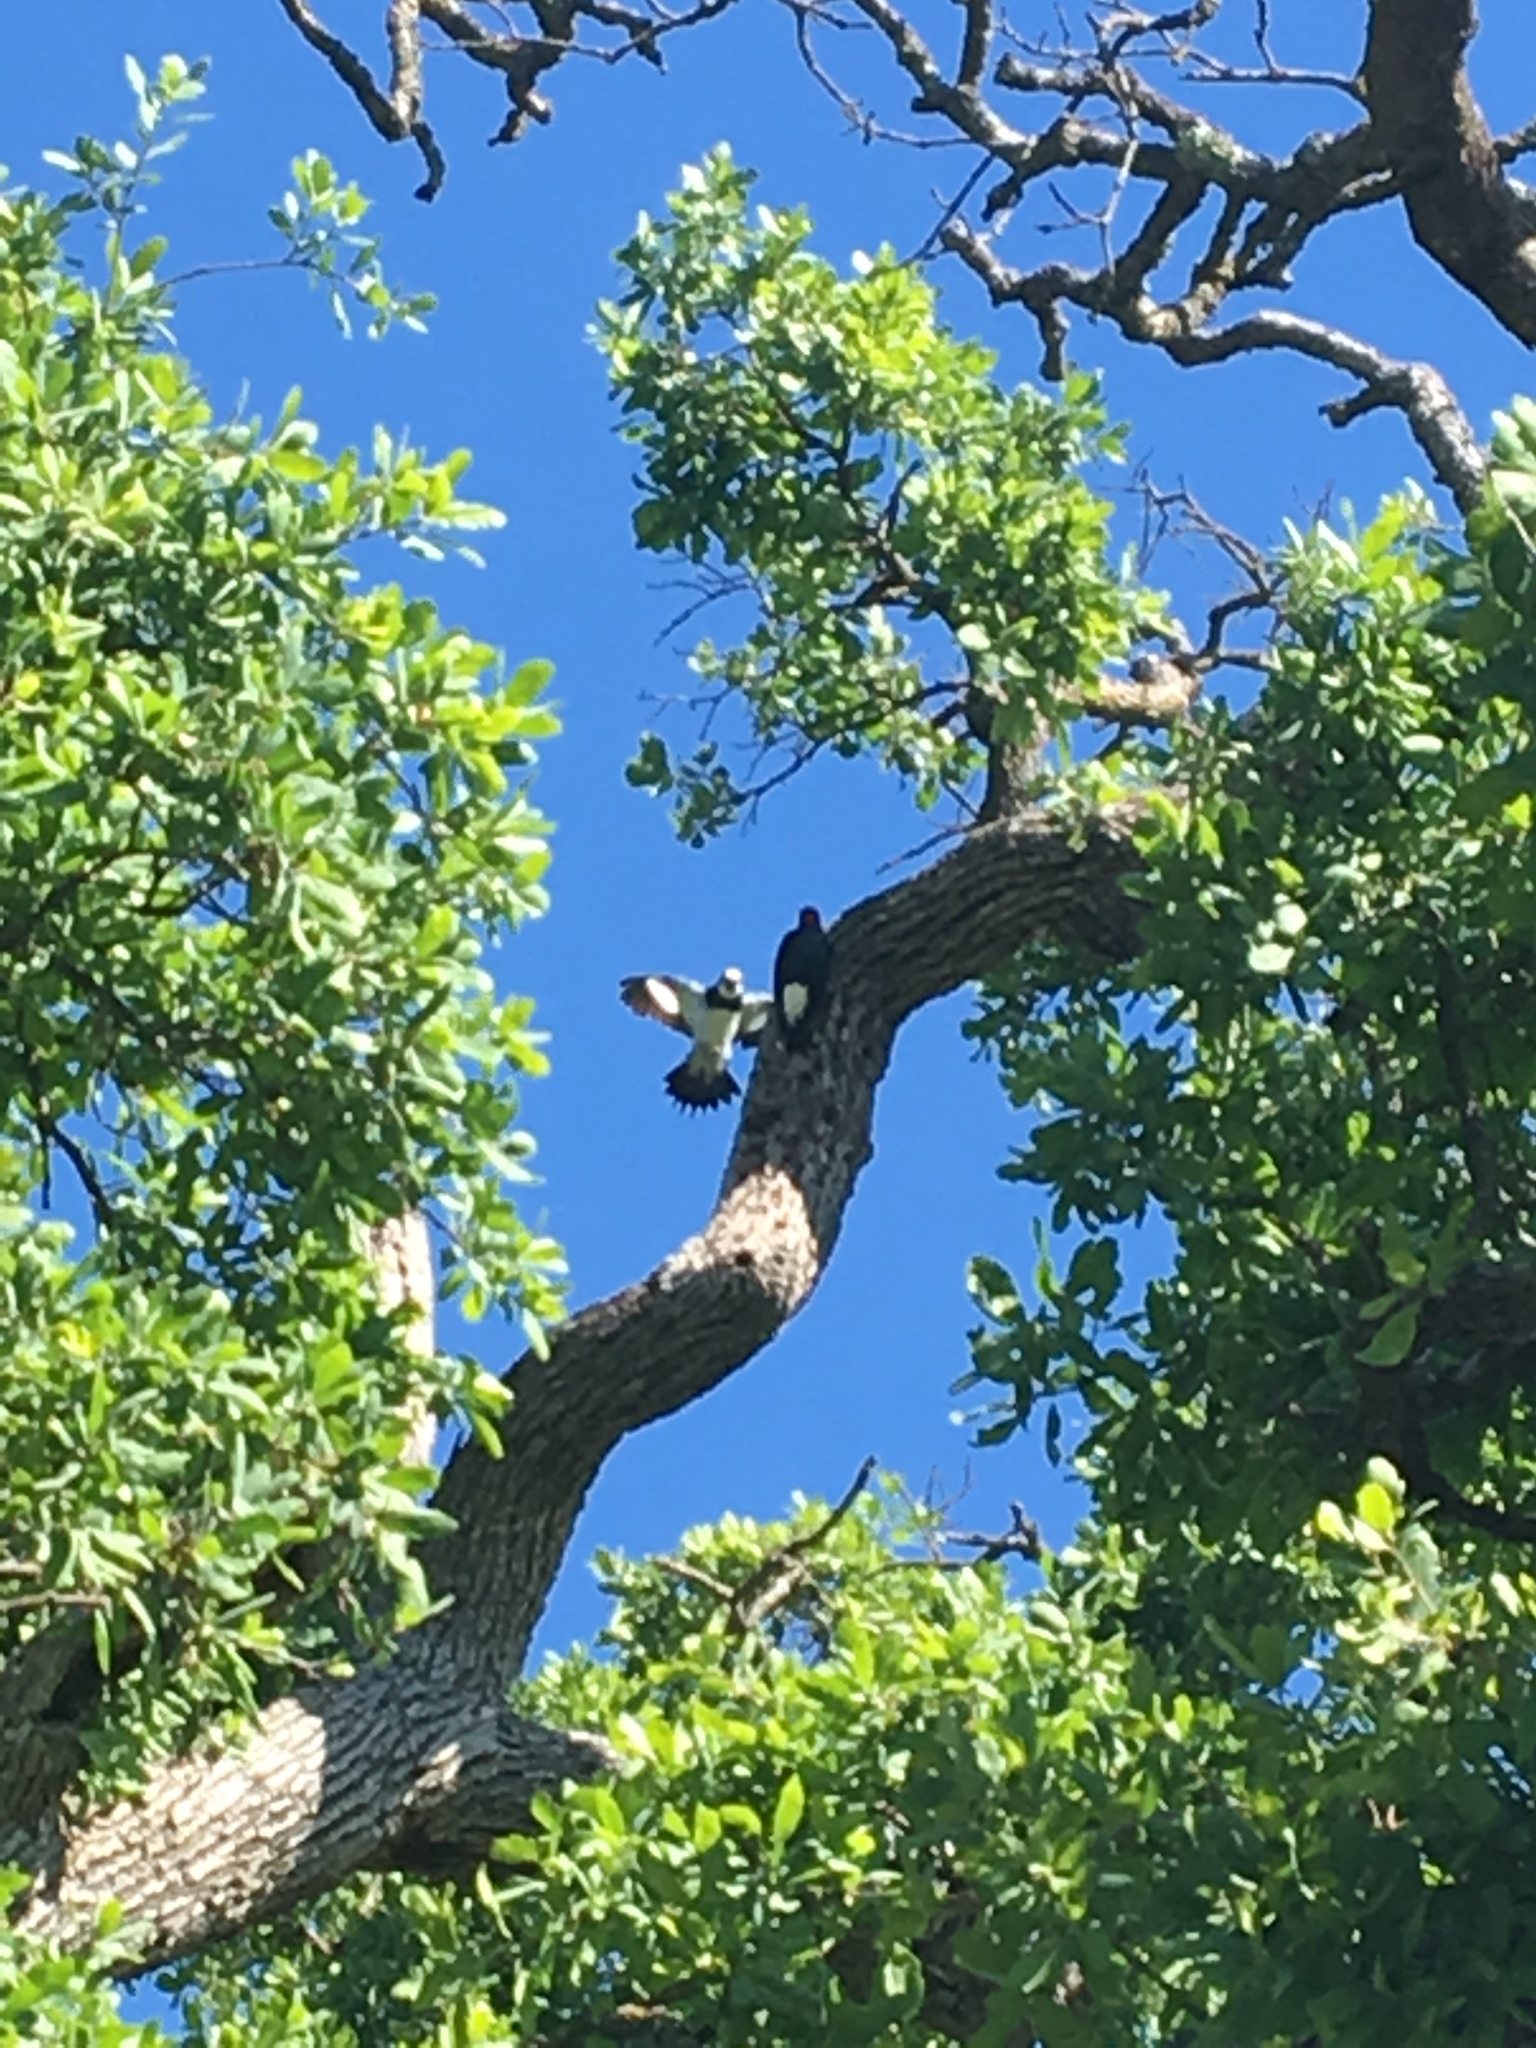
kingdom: Animalia
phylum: Chordata
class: Aves
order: Piciformes
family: Picidae
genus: Melanerpes
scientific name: Melanerpes formicivorus
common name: Acorn woodpecker
